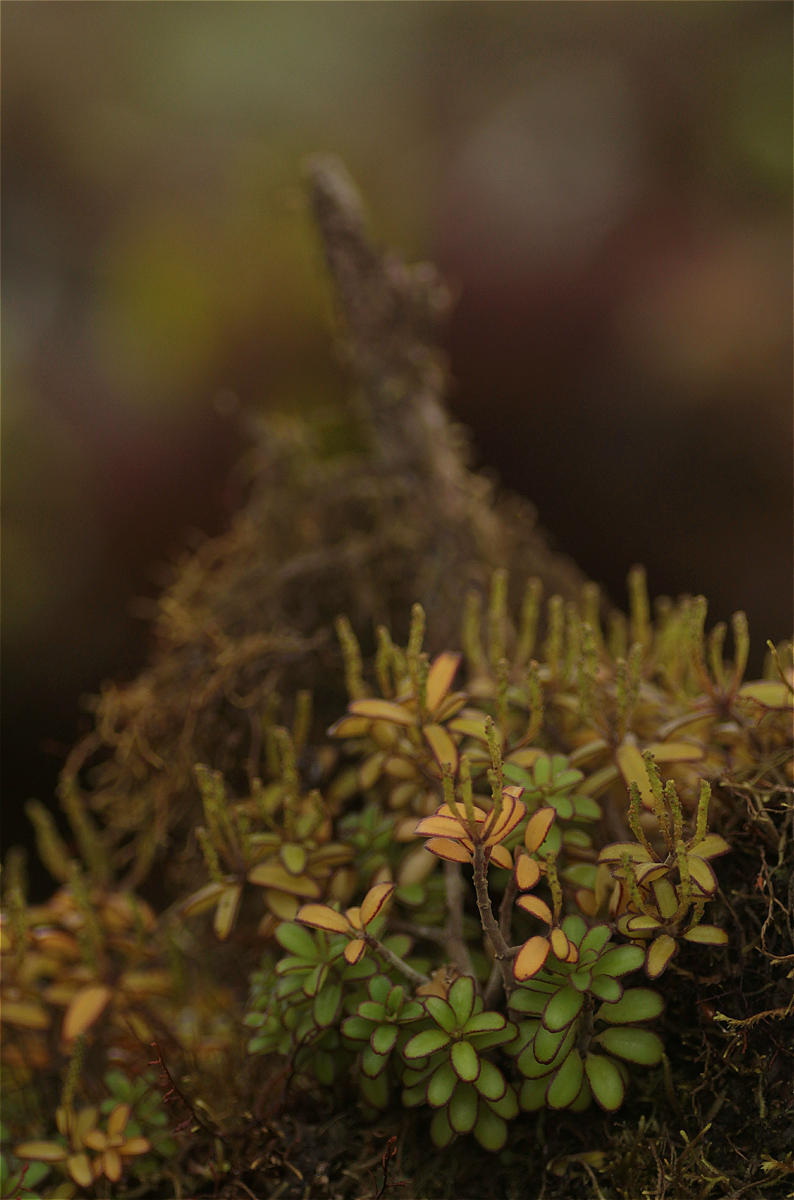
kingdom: Plantae
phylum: Tracheophyta
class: Magnoliopsida
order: Piperales
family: Piperaceae
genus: Peperomia
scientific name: Peperomia inaequalifolia
